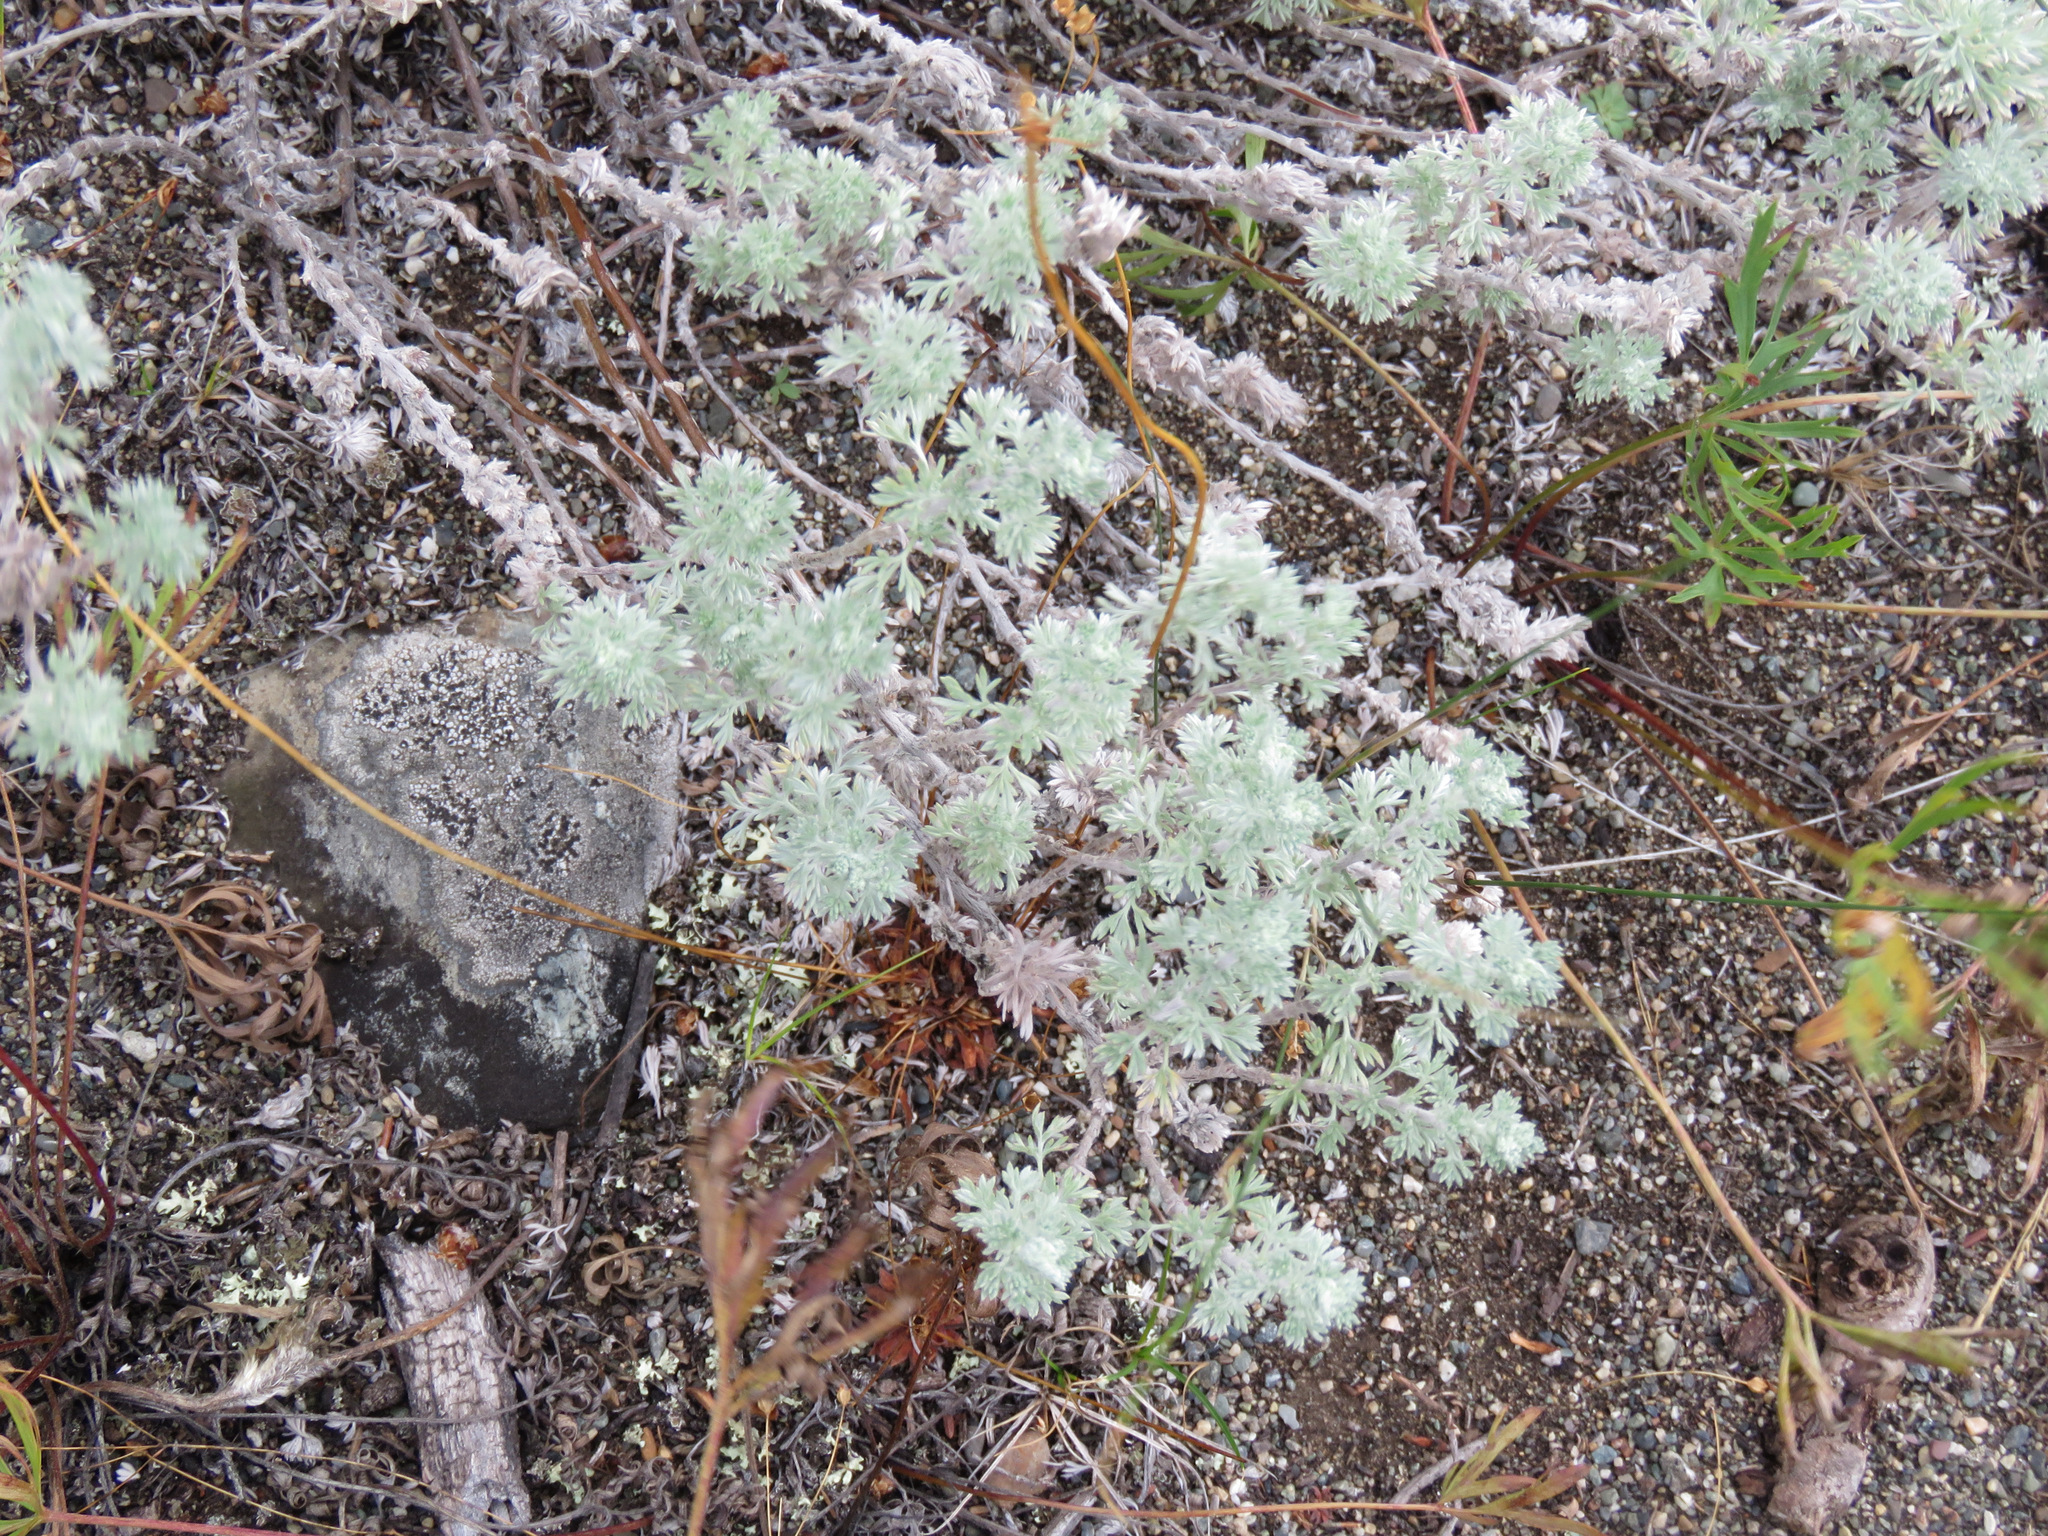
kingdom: Plantae
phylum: Tracheophyta
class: Magnoliopsida
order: Asterales
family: Asteraceae
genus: Artemisia
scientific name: Artemisia frigida
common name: Prairie sagewort
